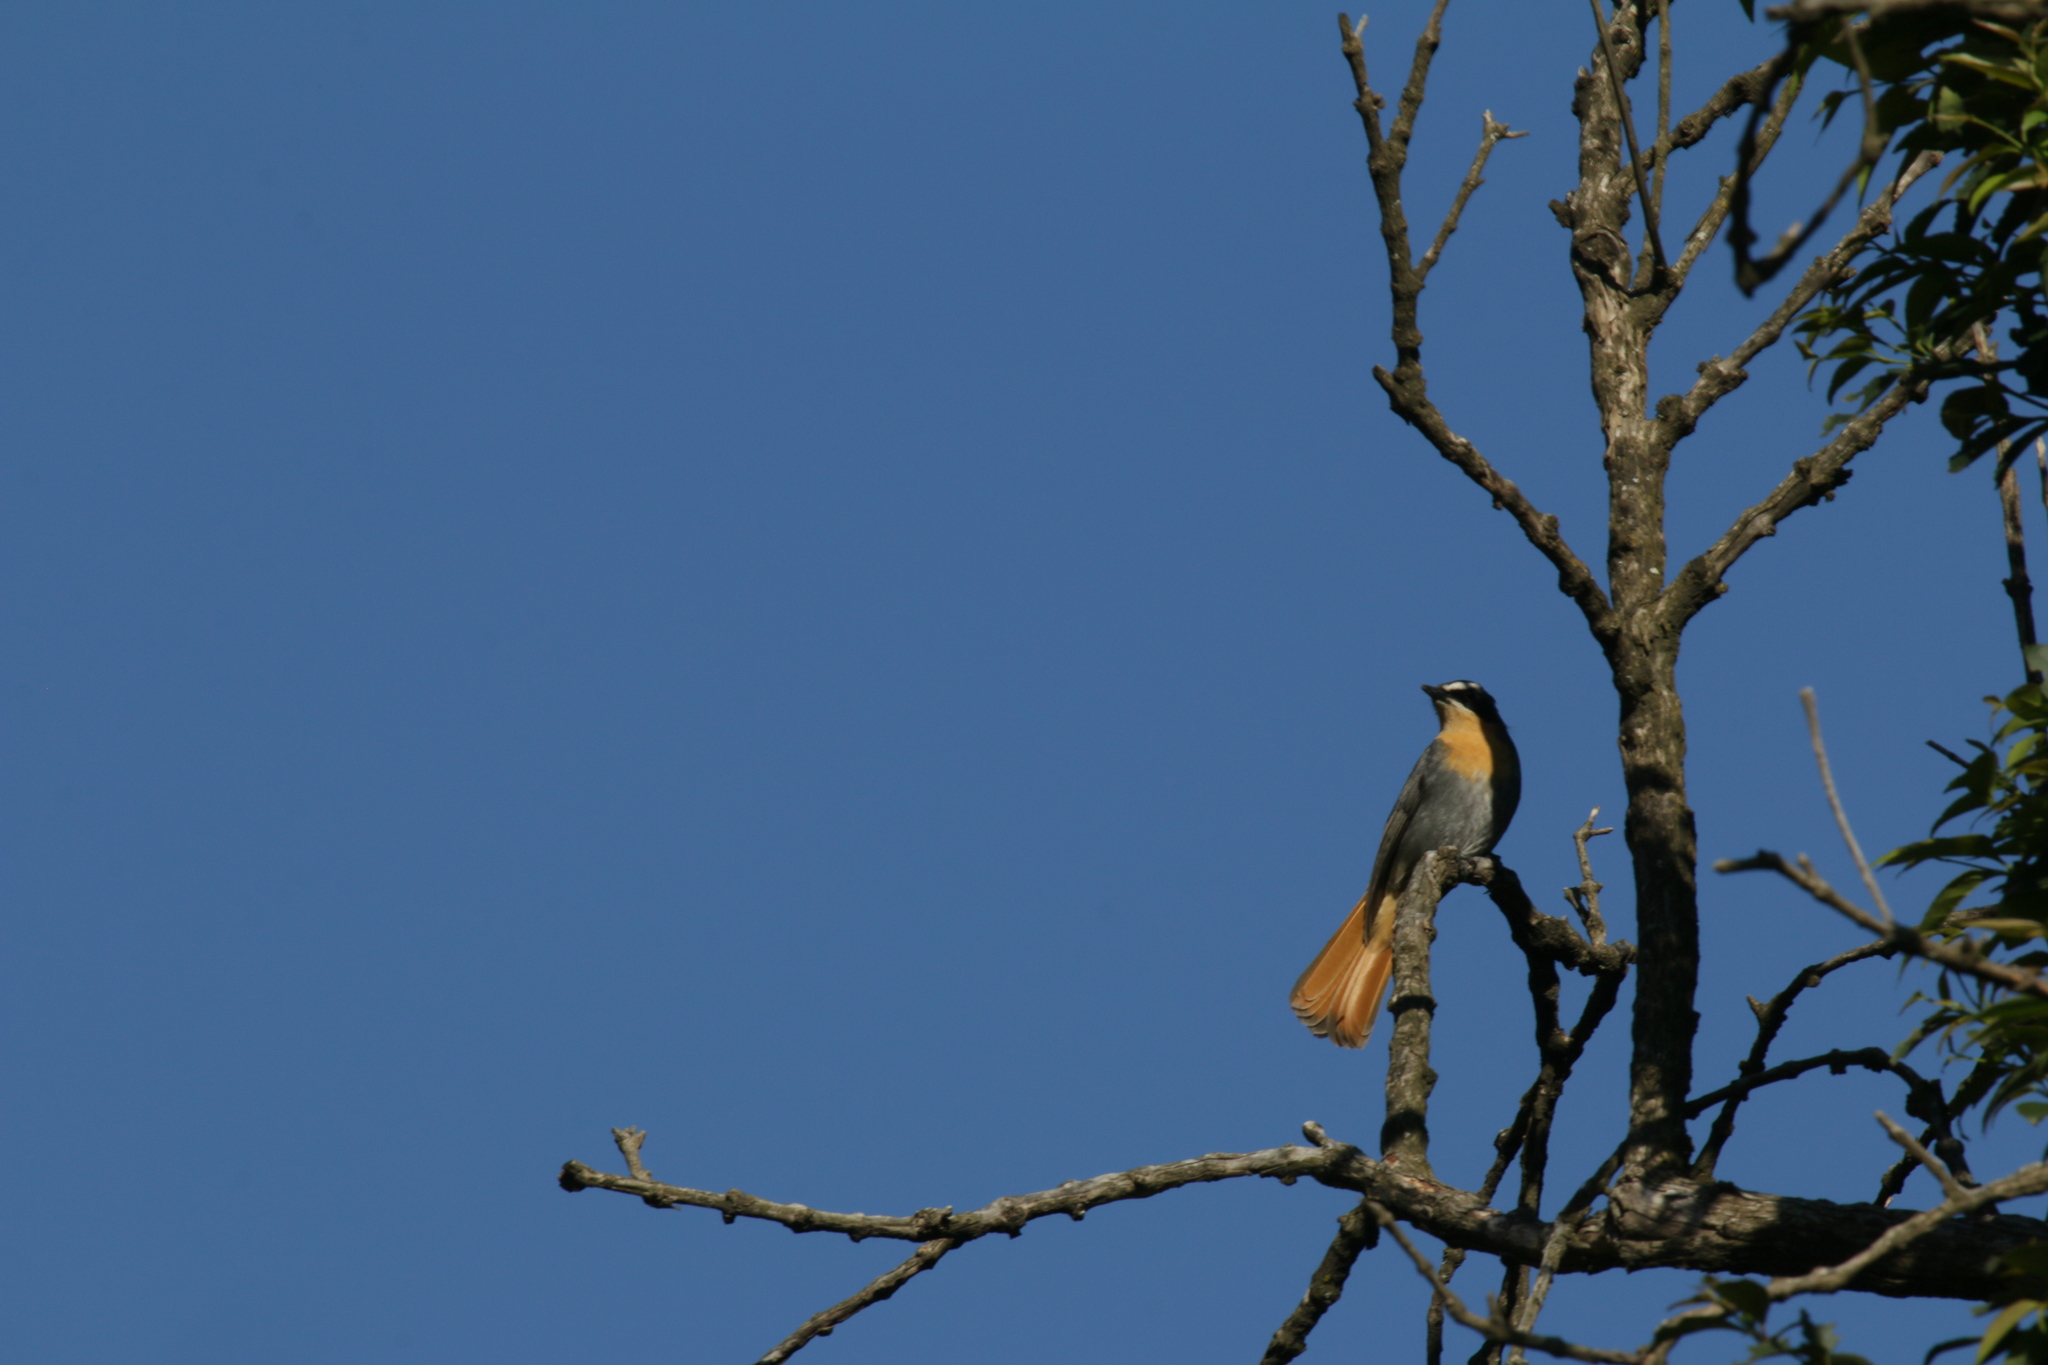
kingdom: Animalia
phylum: Chordata
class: Aves
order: Passeriformes
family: Muscicapidae
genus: Cossypha
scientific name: Cossypha caffra
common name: Cape robin-chat
